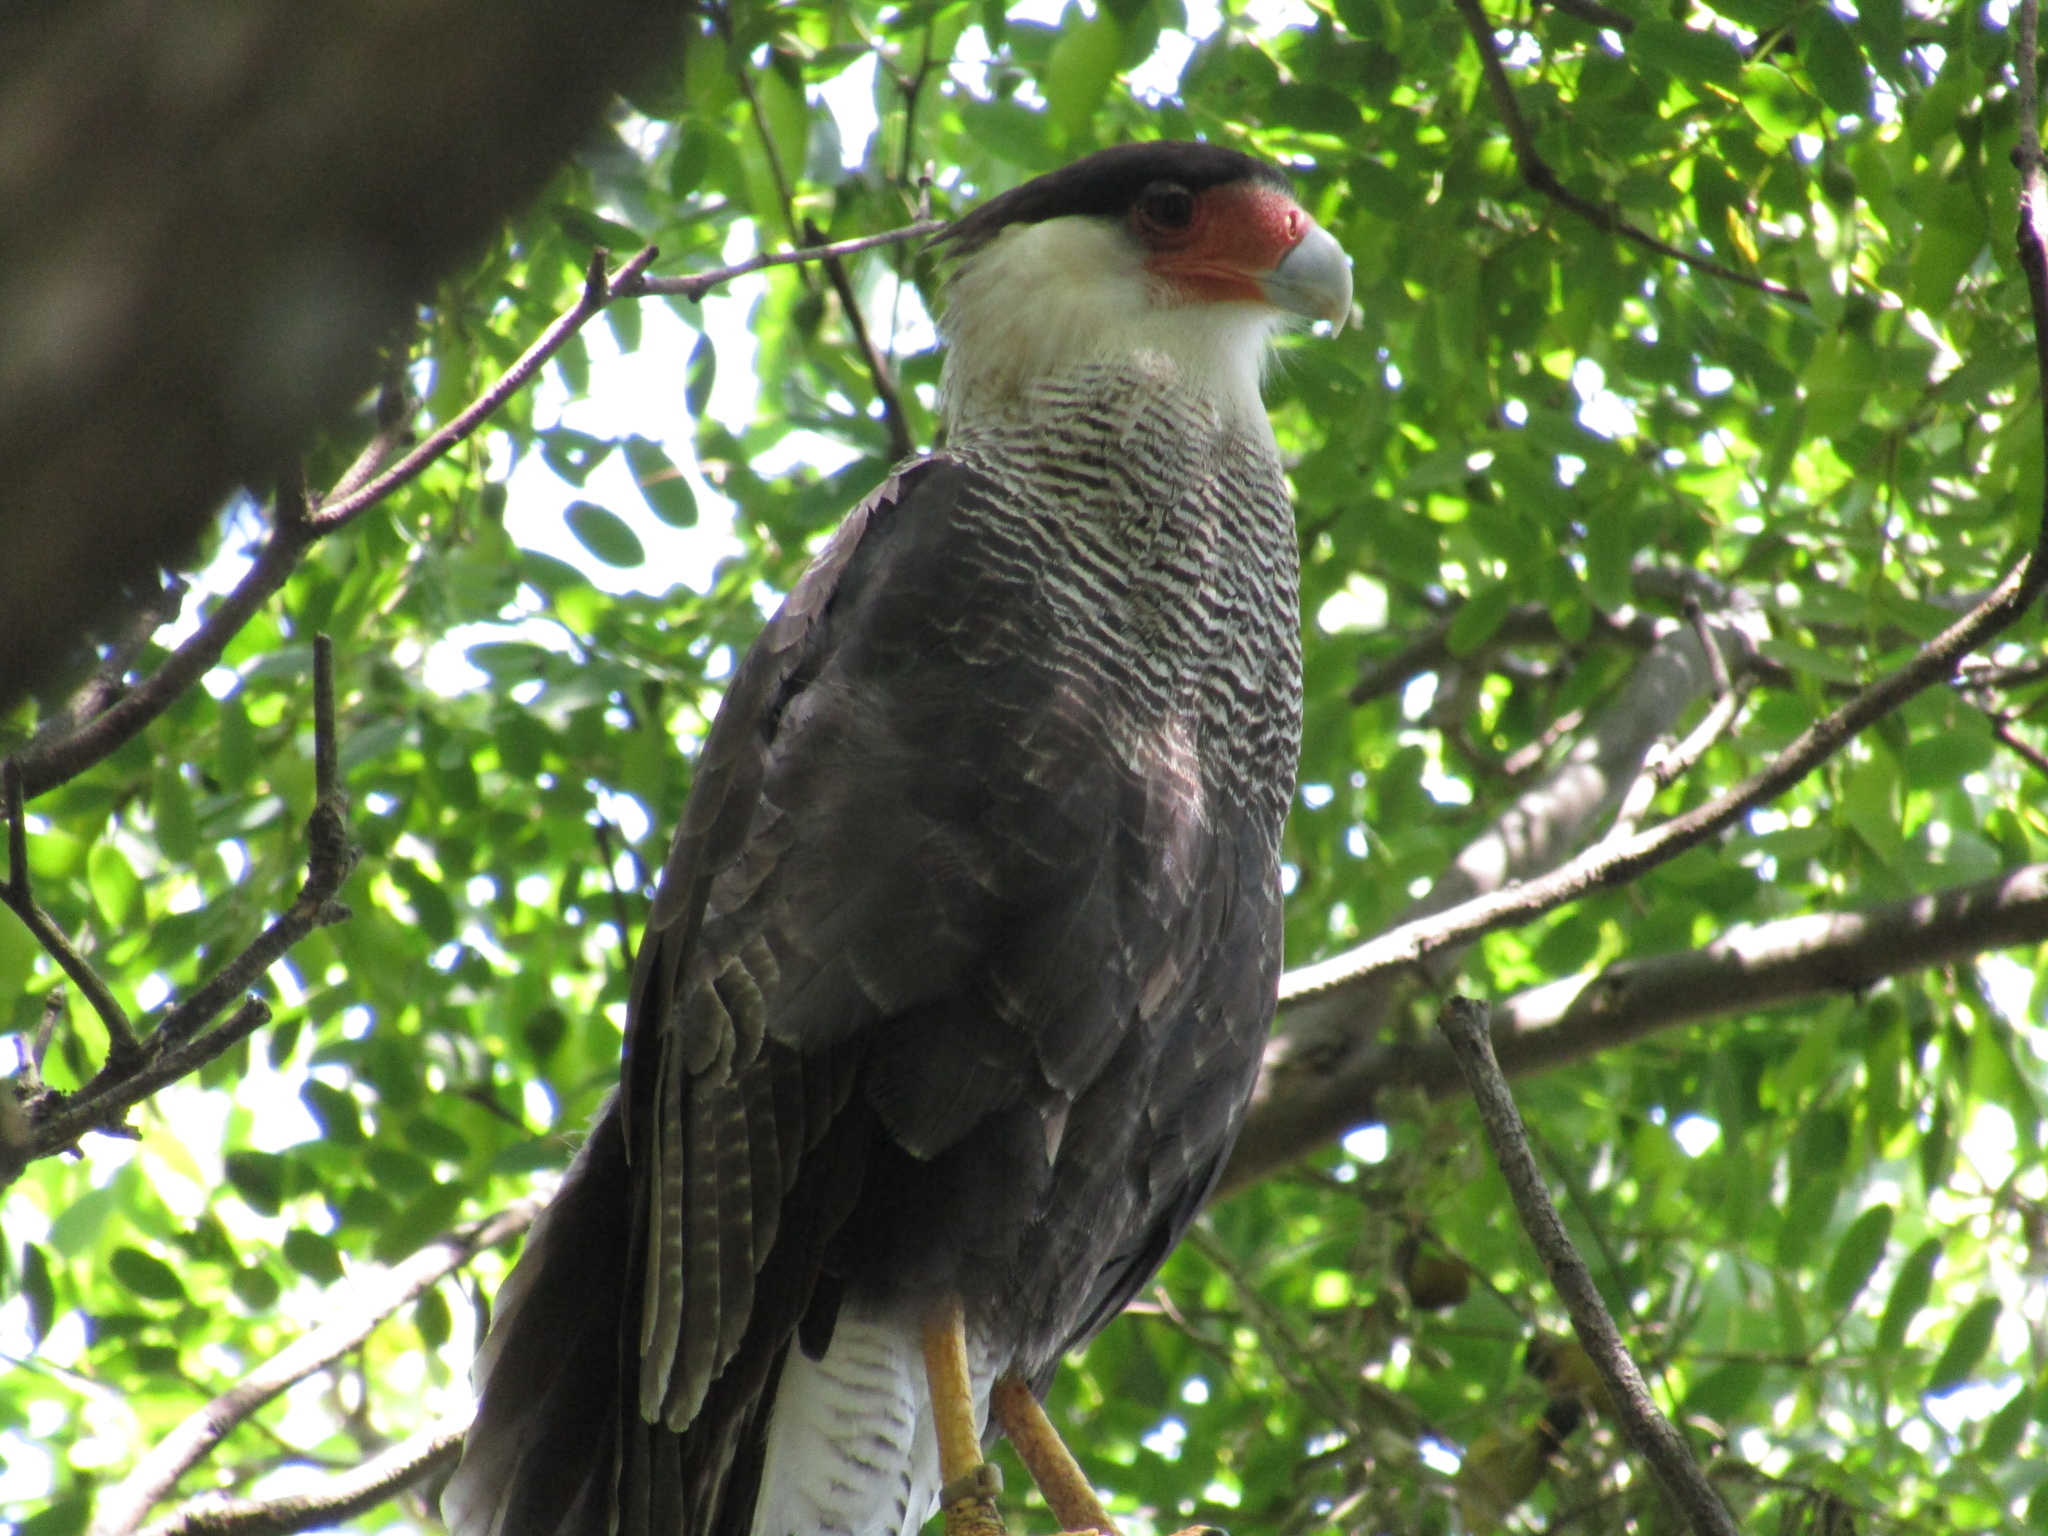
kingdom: Animalia
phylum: Chordata
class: Aves
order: Falconiformes
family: Falconidae
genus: Caracara
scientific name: Caracara plancus
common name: Southern caracara
